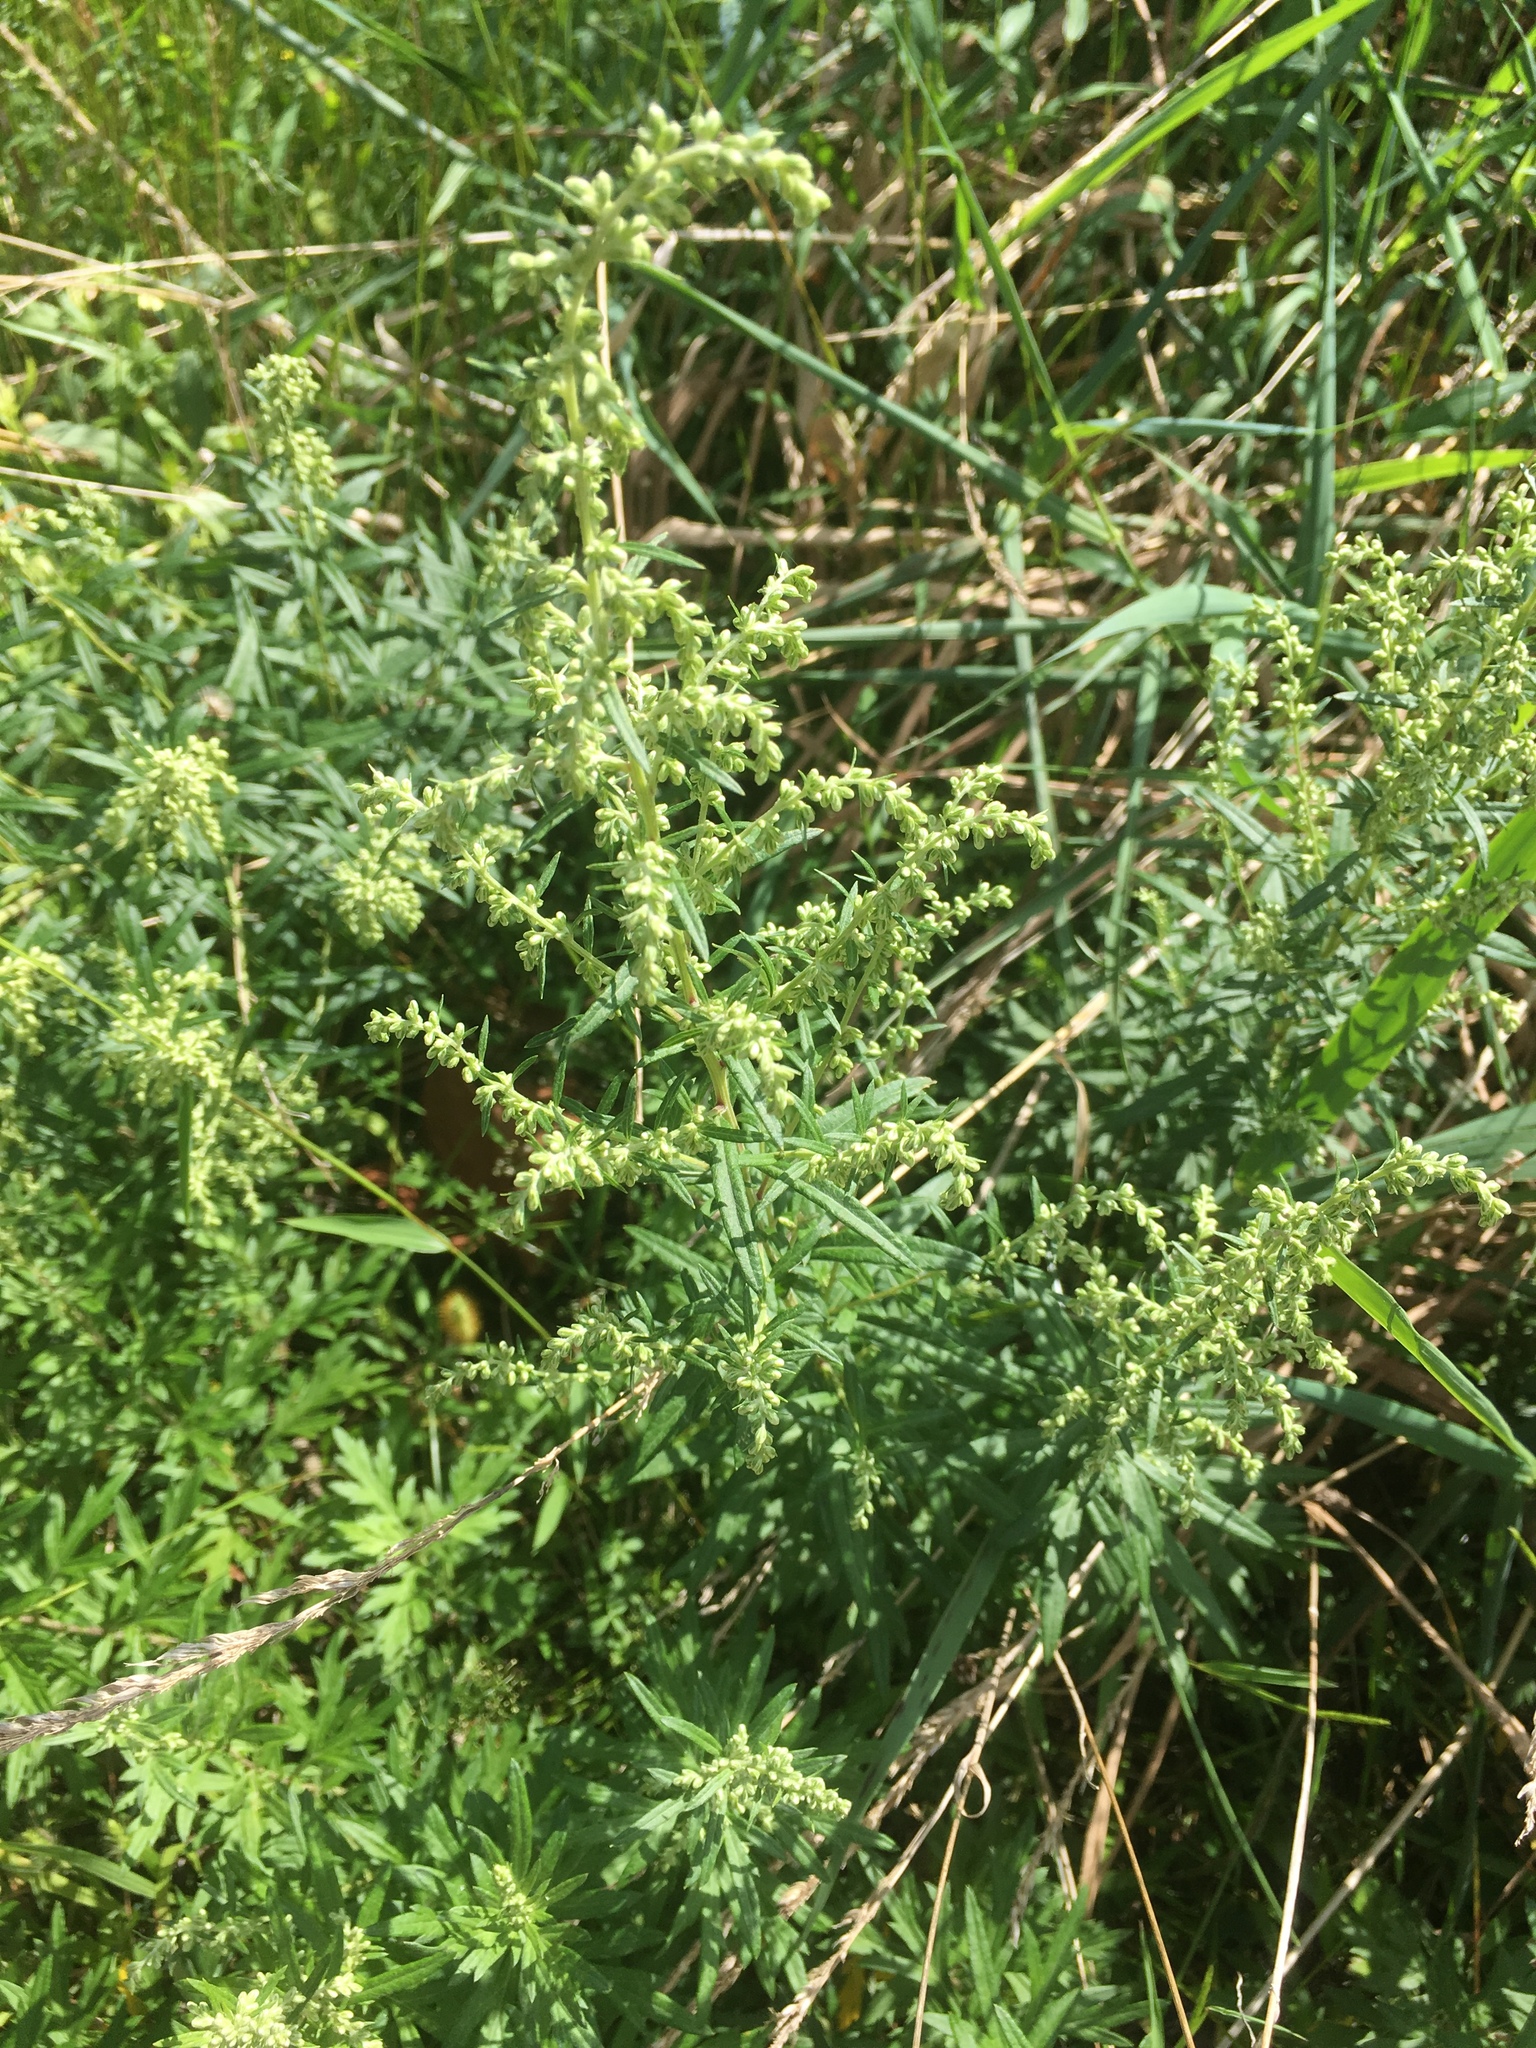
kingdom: Plantae
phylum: Tracheophyta
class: Magnoliopsida
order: Asterales
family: Asteraceae
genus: Artemisia
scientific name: Artemisia vulgaris
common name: Mugwort
